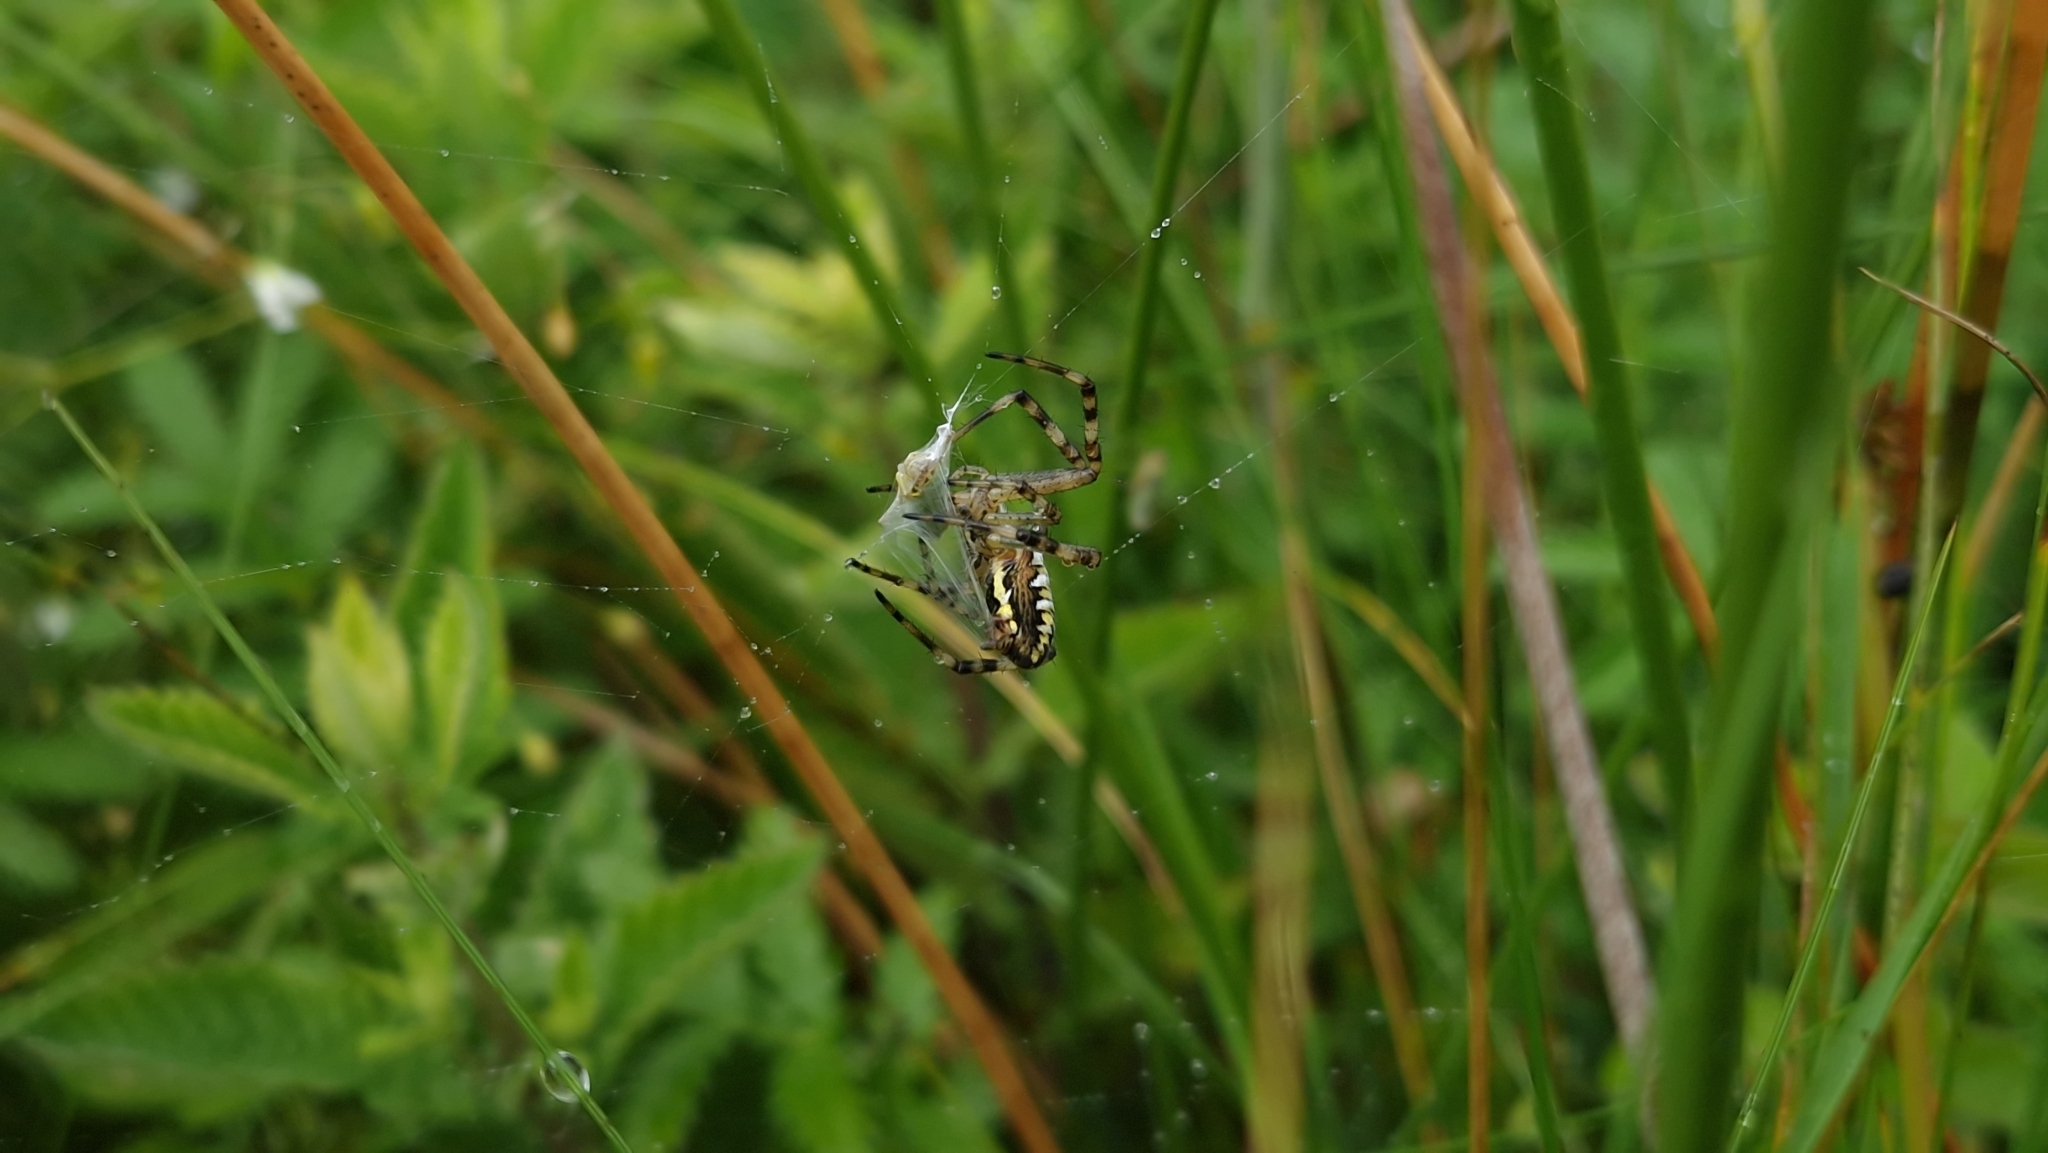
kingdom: Animalia
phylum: Arthropoda
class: Arachnida
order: Araneae
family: Araneidae
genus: Argiope
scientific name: Argiope bruennichi
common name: Wasp spider
